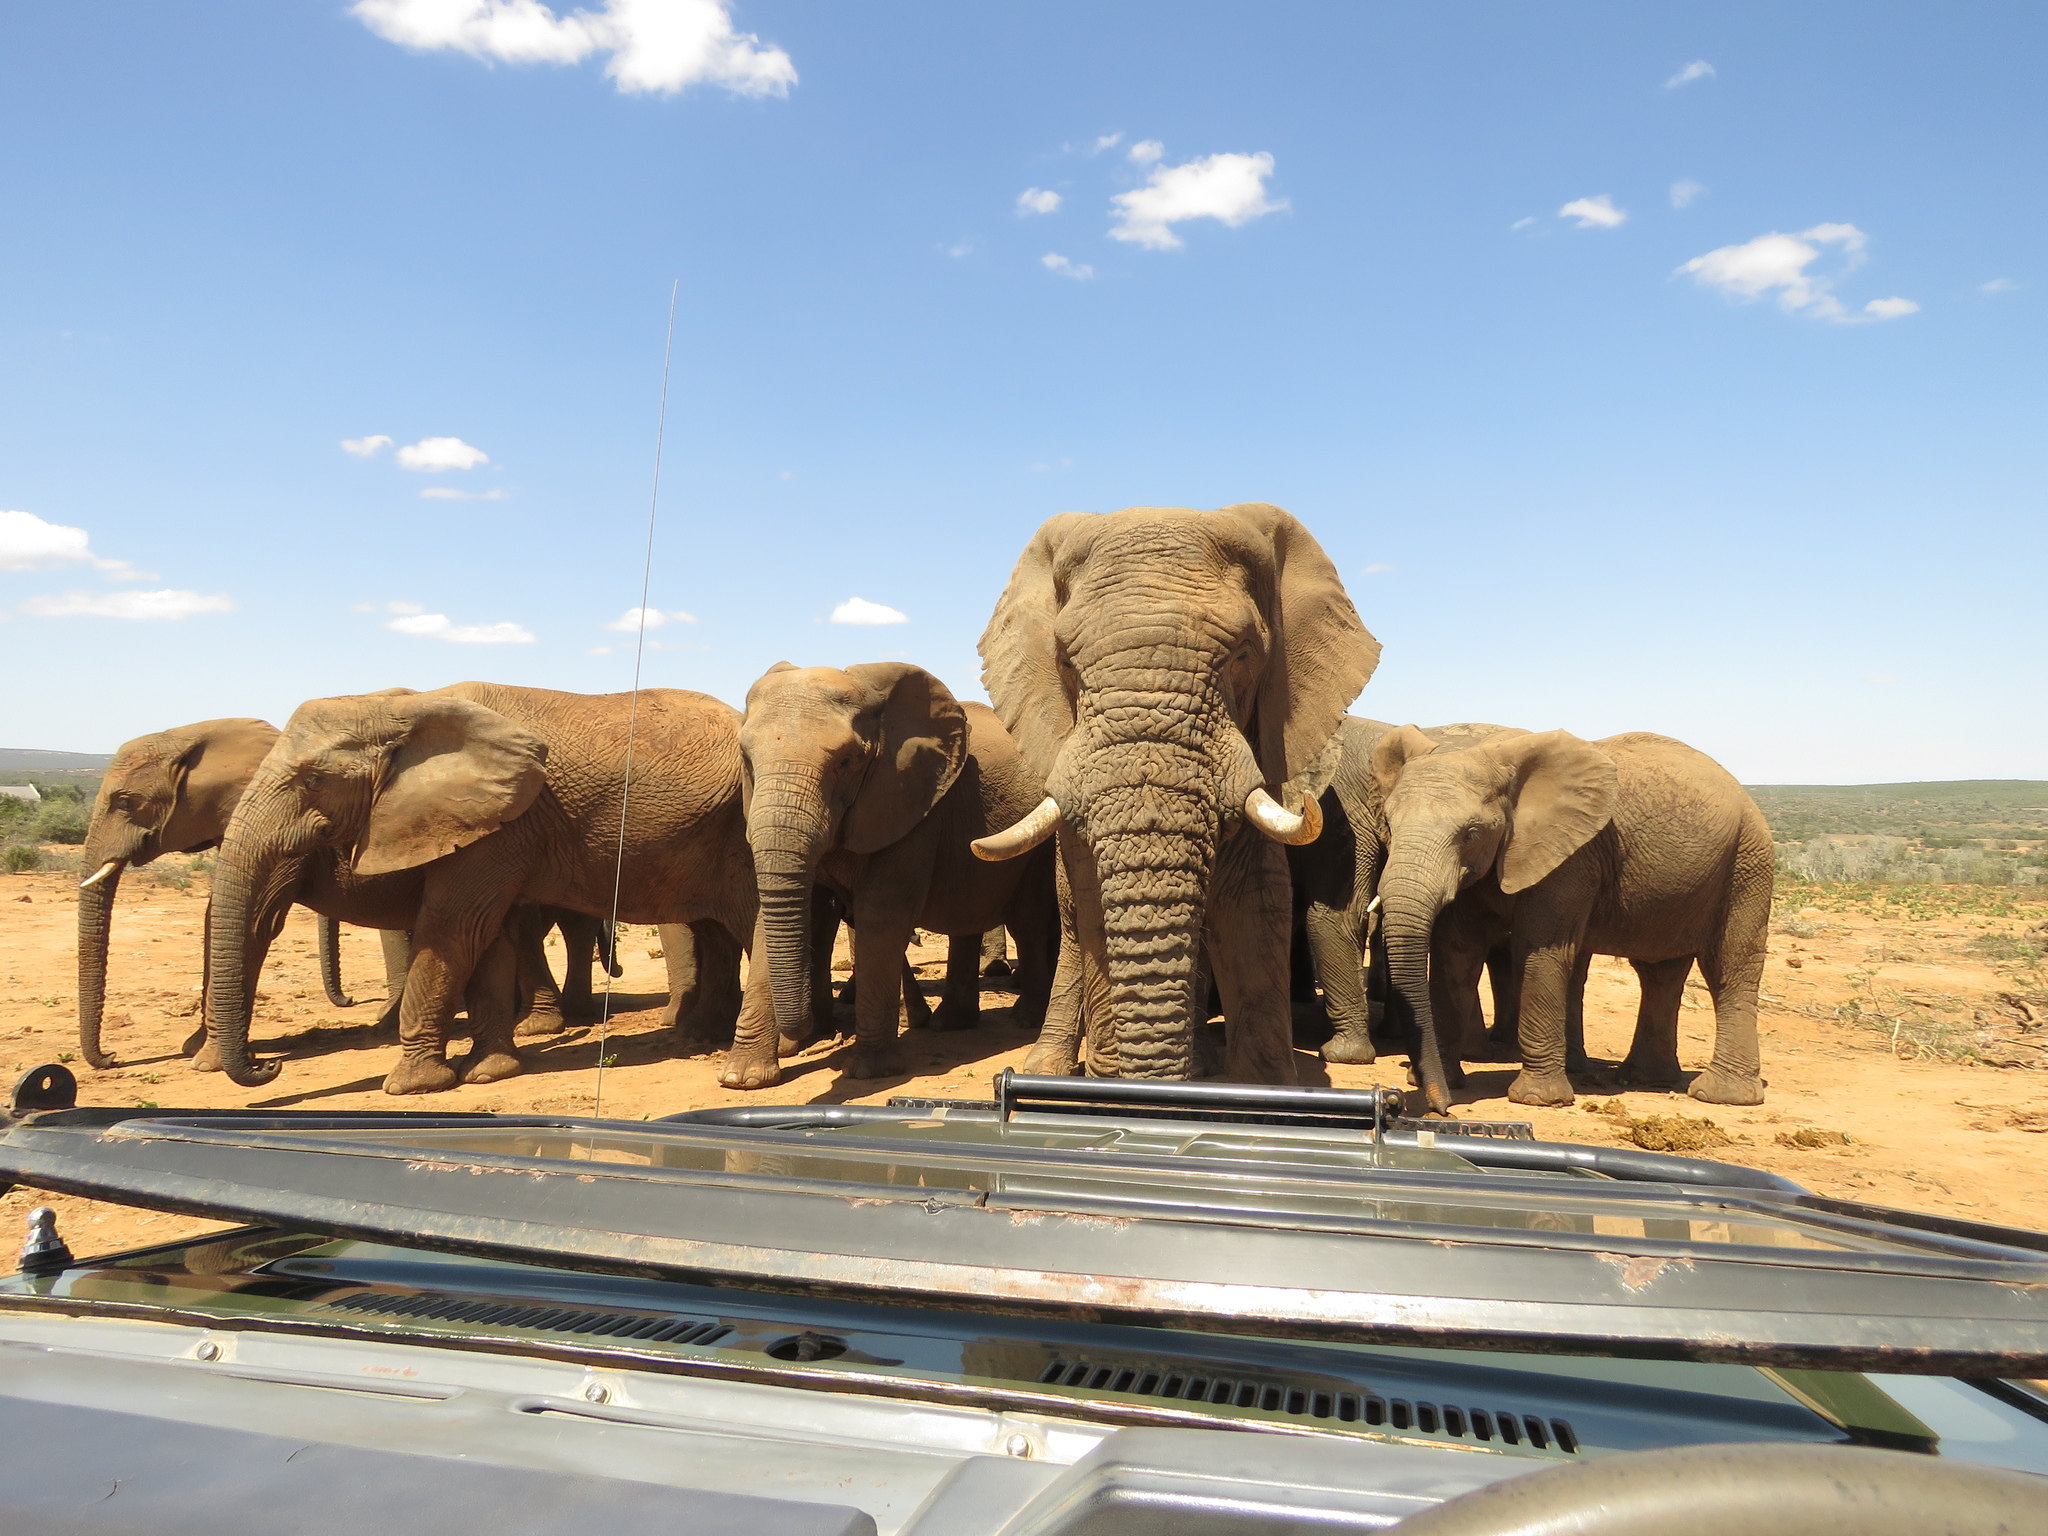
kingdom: Animalia
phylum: Chordata
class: Mammalia
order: Proboscidea
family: Elephantidae
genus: Loxodonta
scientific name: Loxodonta africana
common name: African elephant
